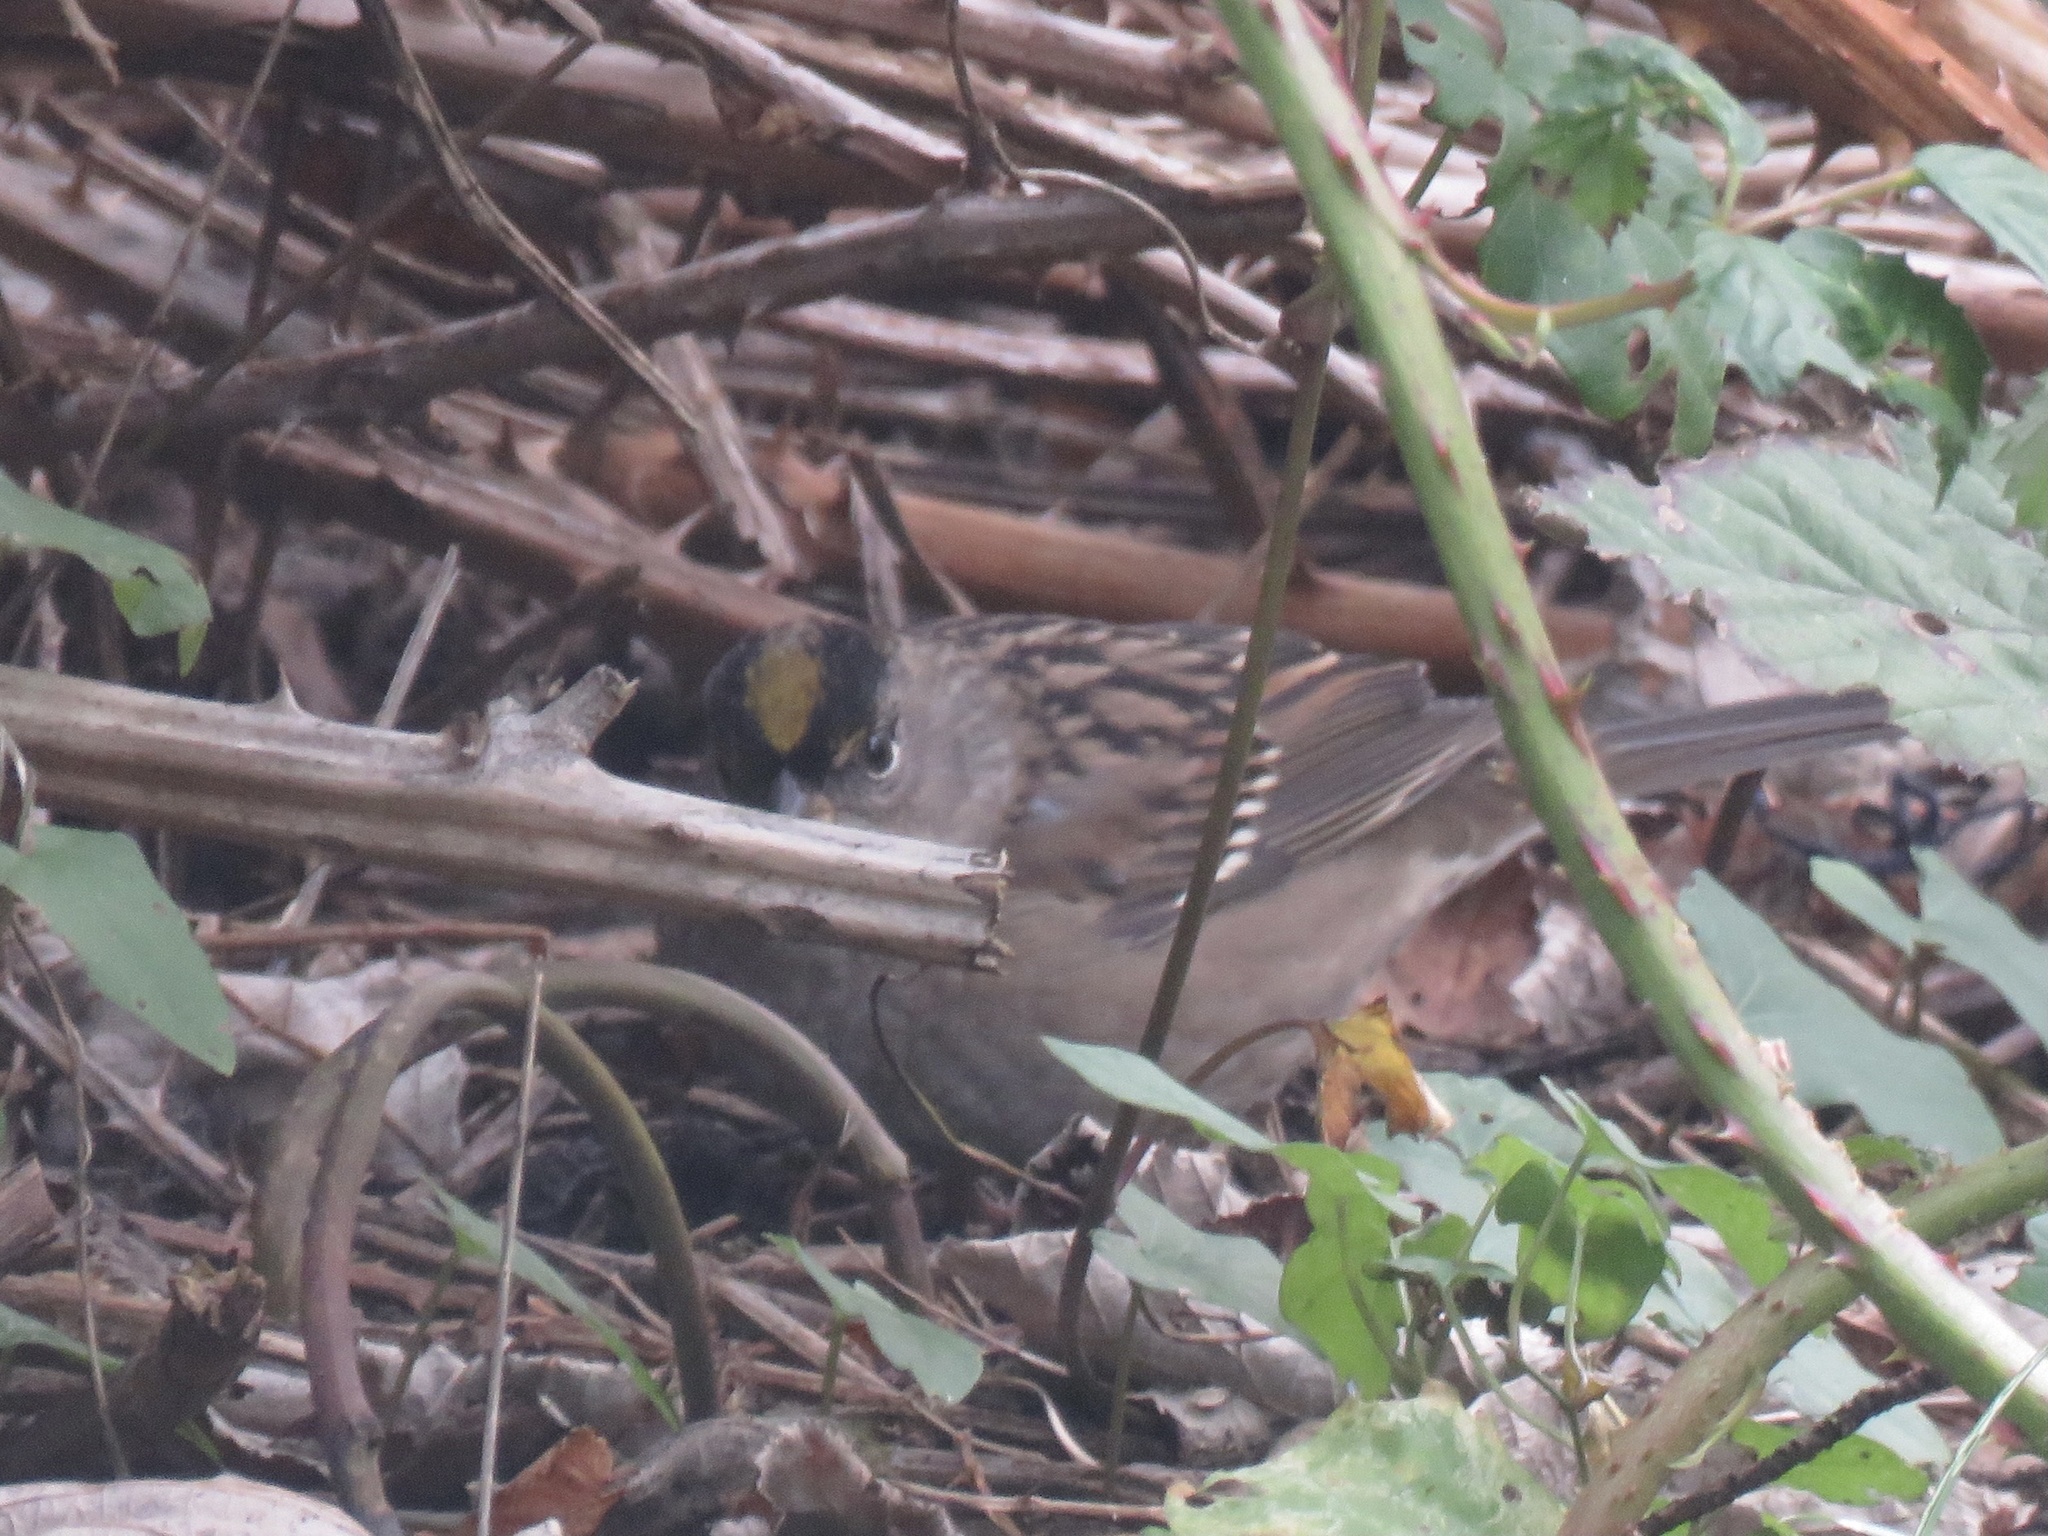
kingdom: Animalia
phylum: Chordata
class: Aves
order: Passeriformes
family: Passerellidae
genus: Zonotrichia
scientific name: Zonotrichia atricapilla
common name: Golden-crowned sparrow
